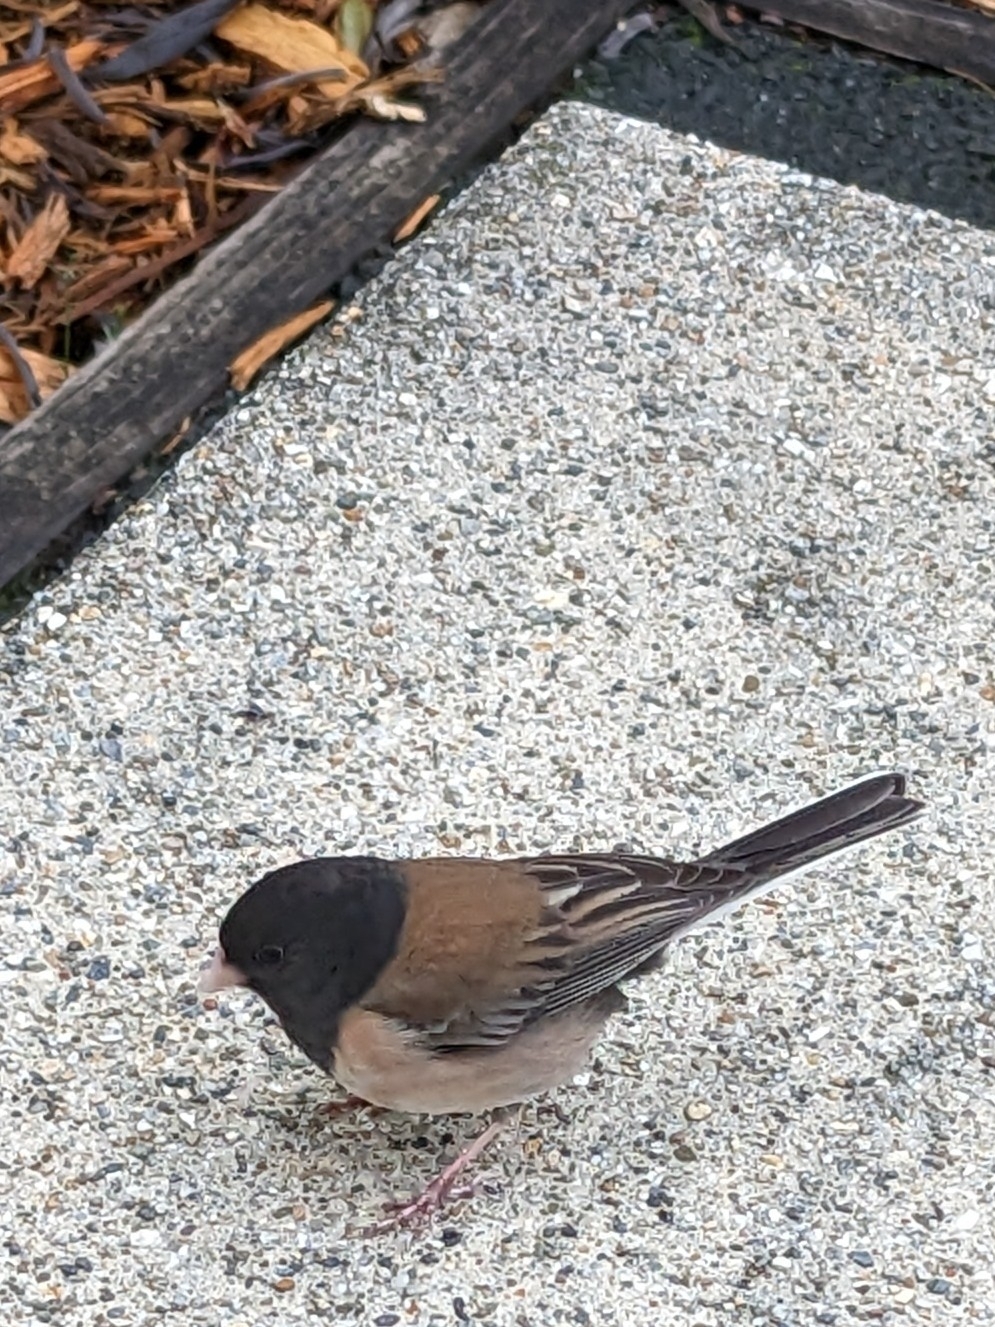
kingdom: Animalia
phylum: Chordata
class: Aves
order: Passeriformes
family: Passerellidae
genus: Junco
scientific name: Junco hyemalis
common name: Dark-eyed junco
